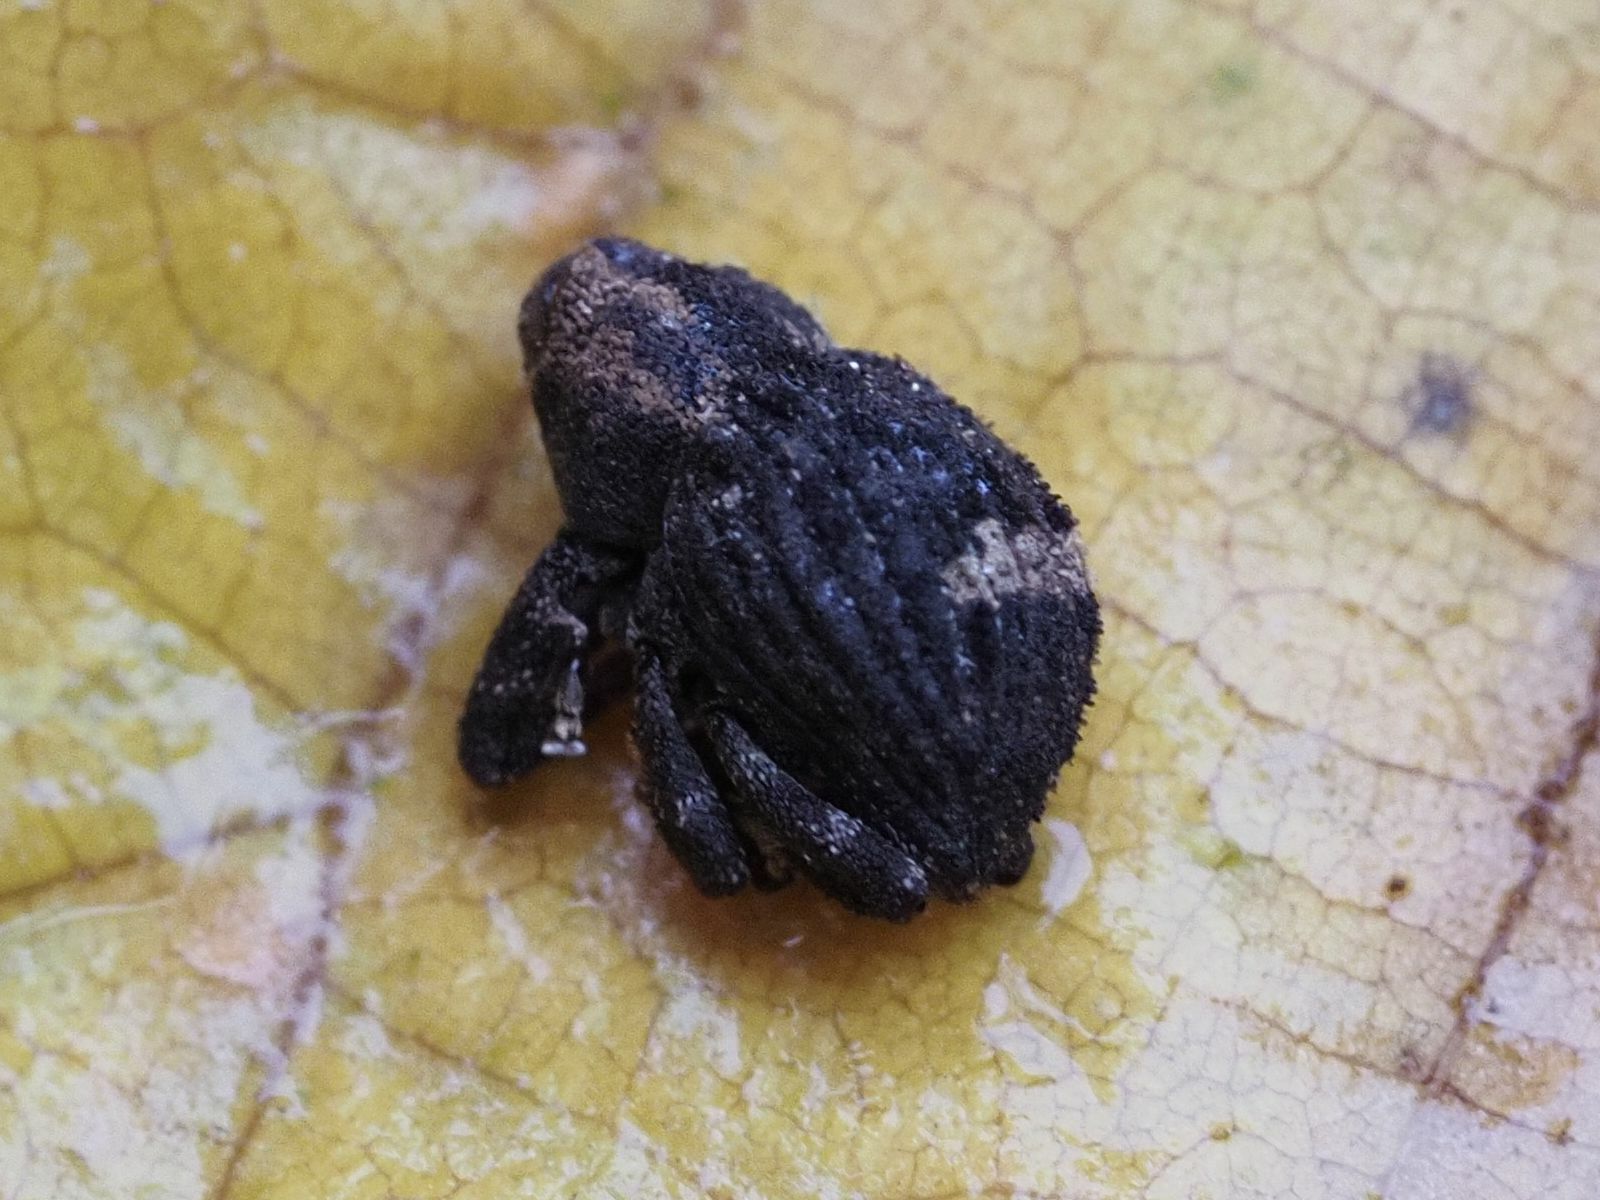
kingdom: Animalia
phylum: Arthropoda
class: Insecta
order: Coleoptera
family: Curculionidae
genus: Echinodera
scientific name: Echinodera hypocrita
